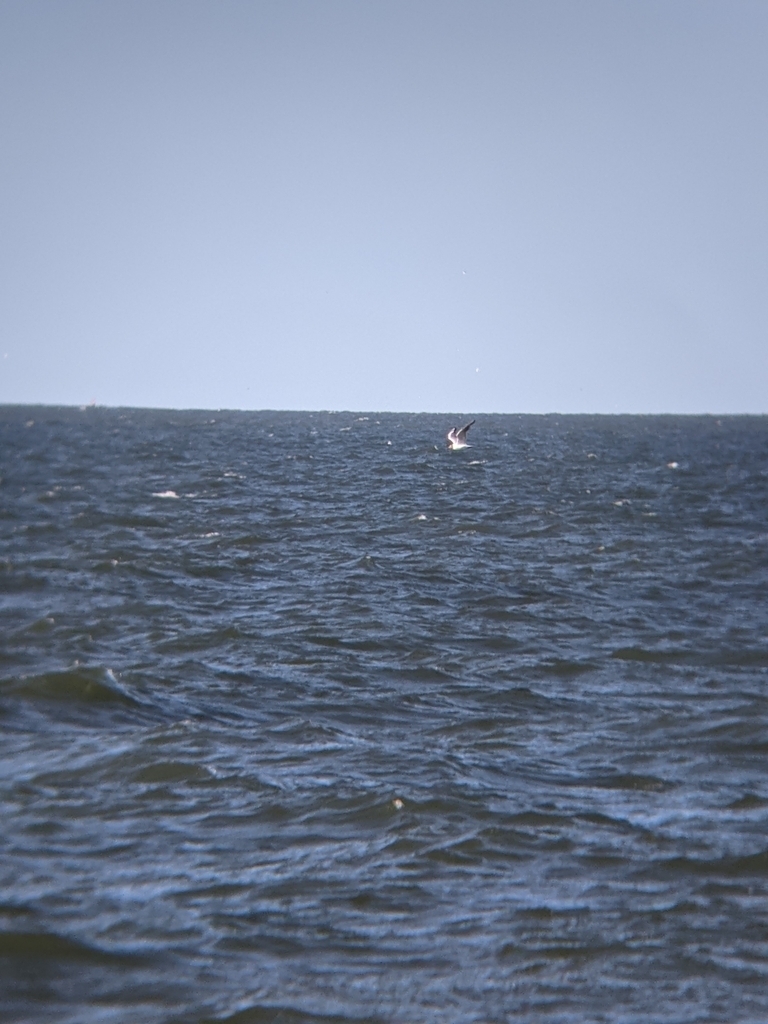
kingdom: Animalia
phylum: Chordata
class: Aves
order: Charadriiformes
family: Laridae
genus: Chroicocephalus
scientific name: Chroicocephalus ridibundus
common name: Black-headed gull
